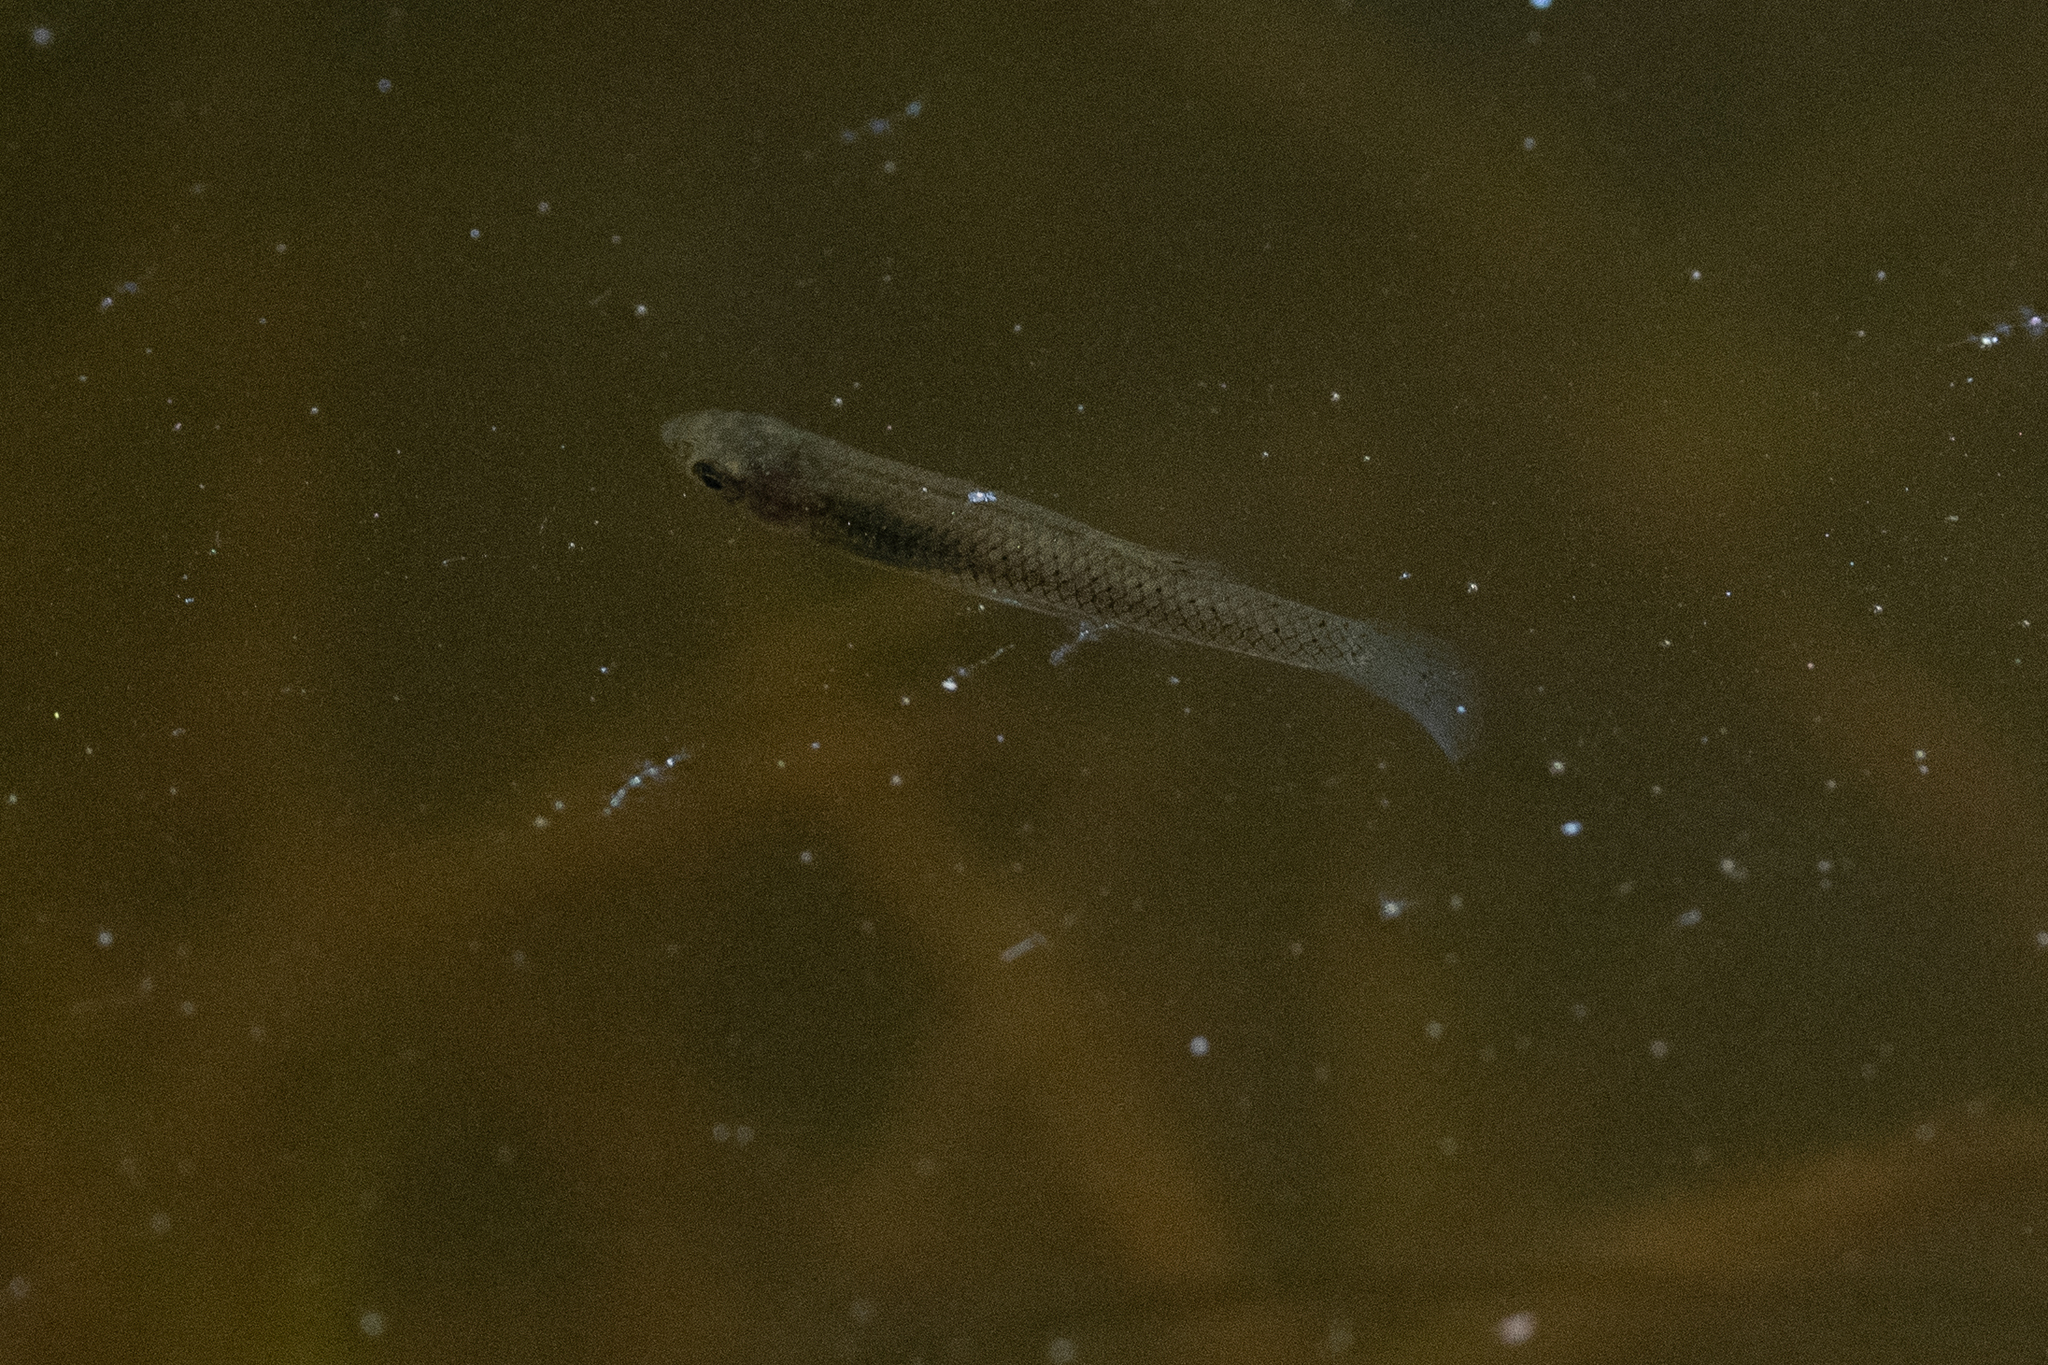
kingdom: Animalia
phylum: Chordata
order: Cyprinodontiformes
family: Poeciliidae
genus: Gambusia
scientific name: Gambusia affinis
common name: Mosquitofish
